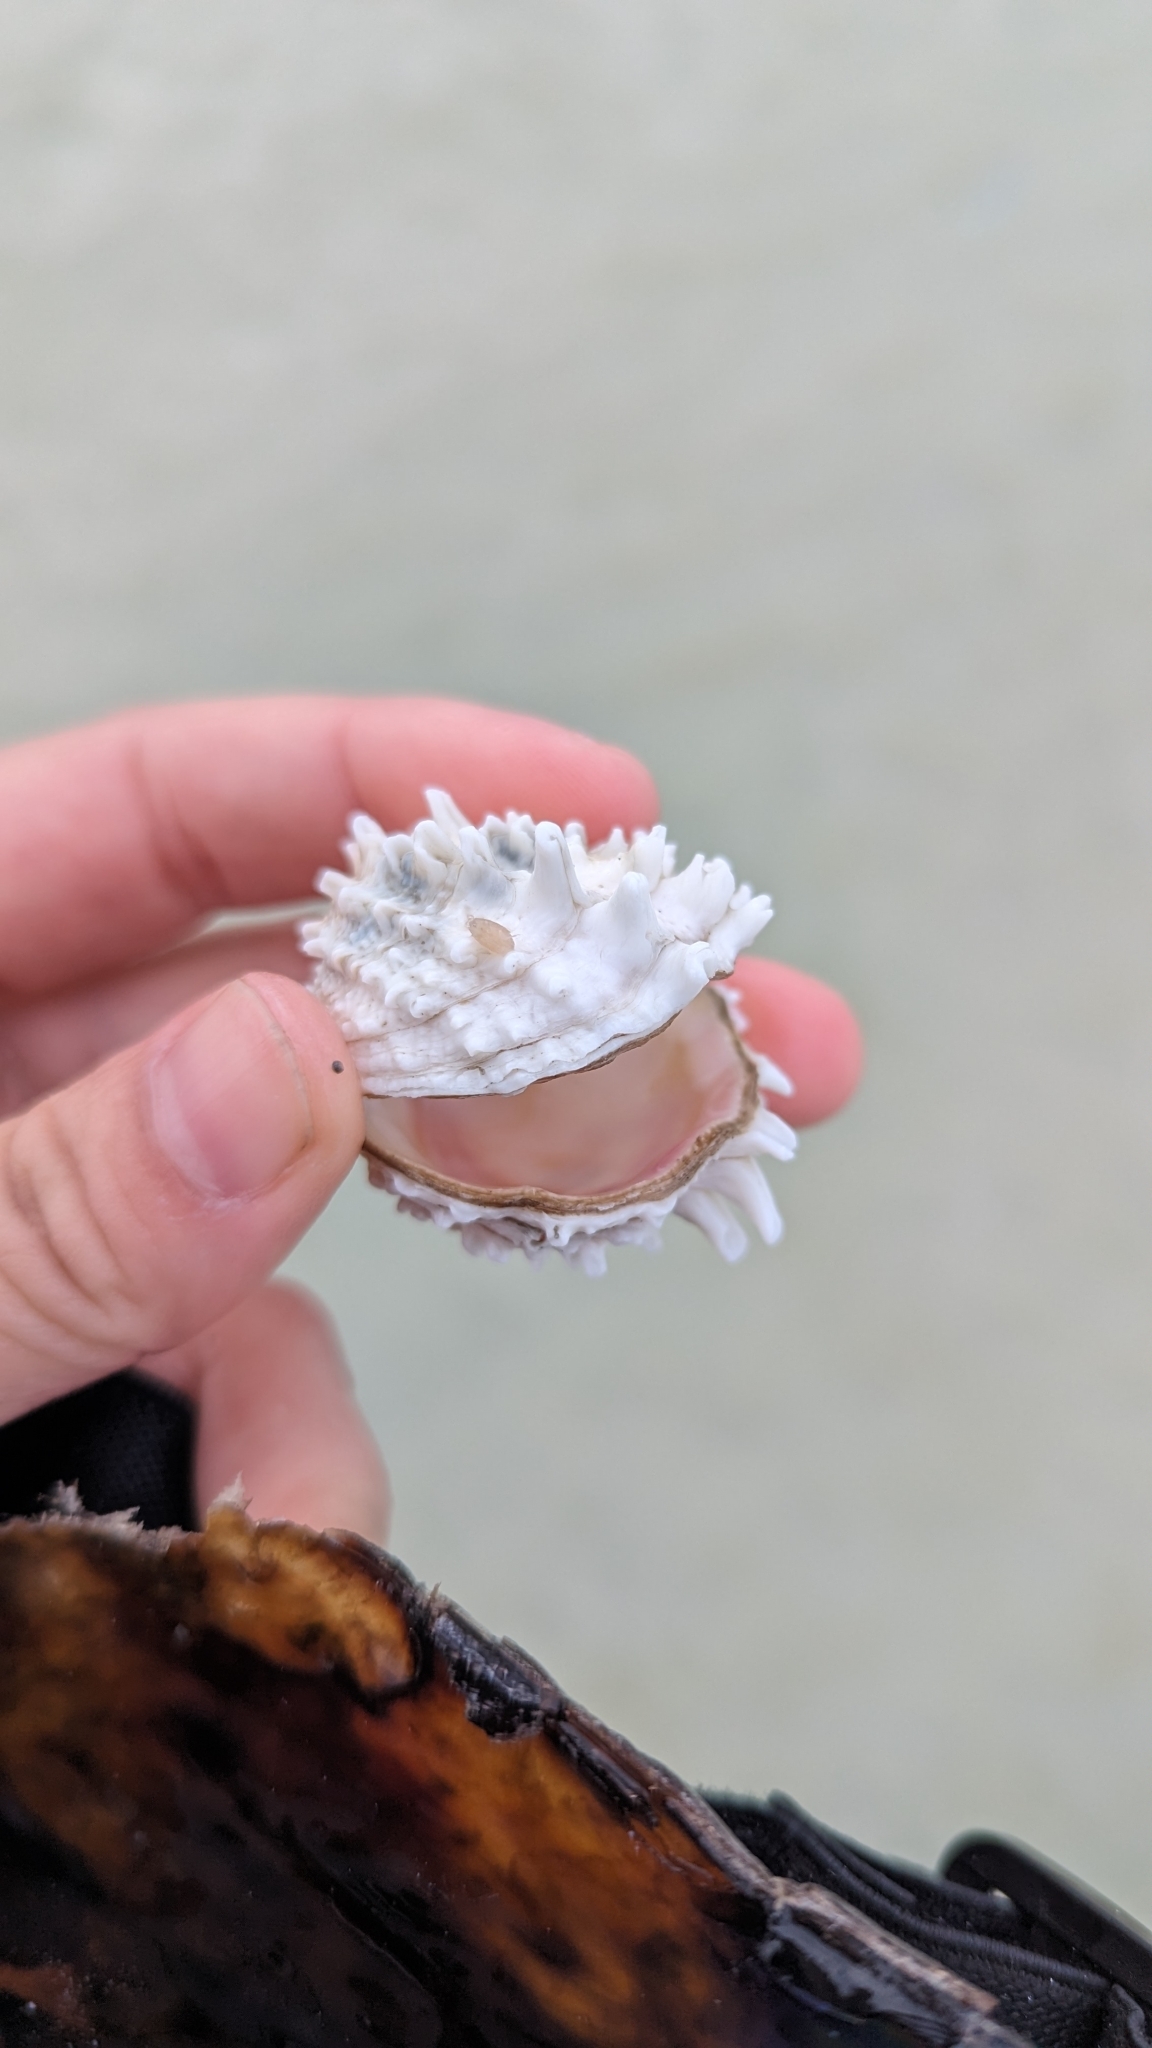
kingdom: Animalia
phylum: Mollusca
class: Bivalvia
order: Venerida
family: Chamidae
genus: Arcinella
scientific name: Arcinella cornuta
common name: Florida spiny jewel box
